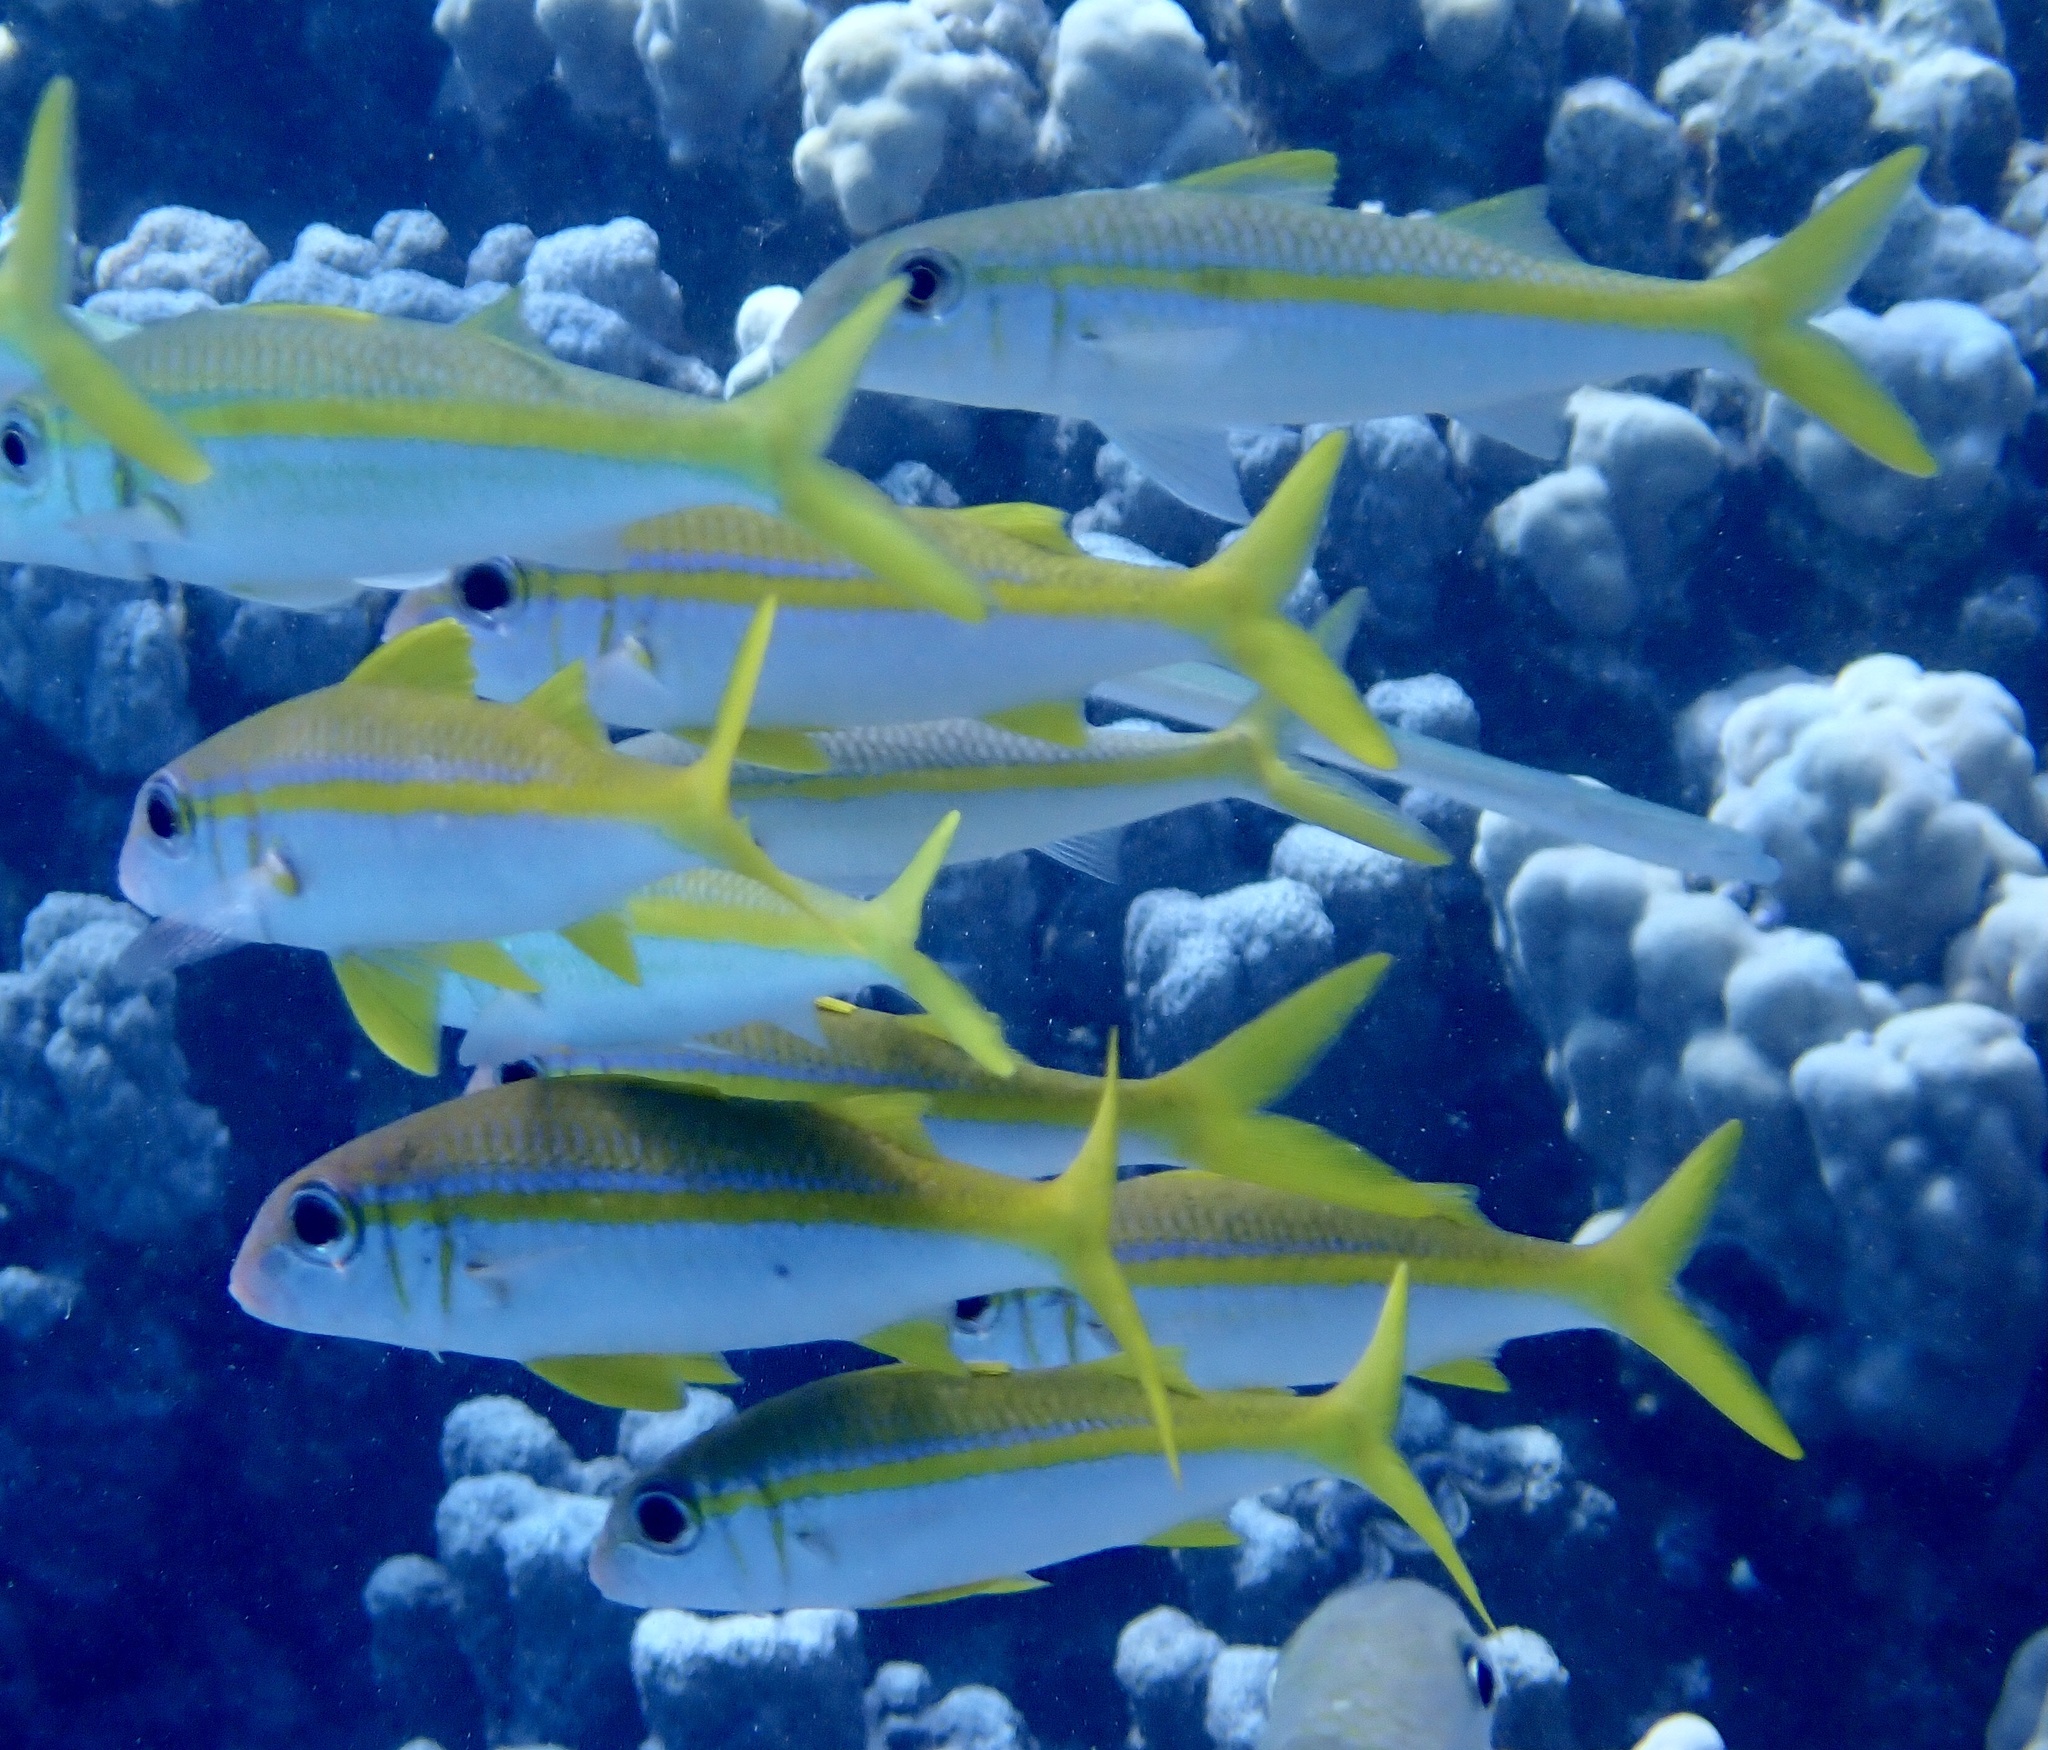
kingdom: Animalia
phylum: Chordata
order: Perciformes
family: Mullidae
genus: Mulloidichthys
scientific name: Mulloidichthys vanicolensis
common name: Yellowfin goatfish
